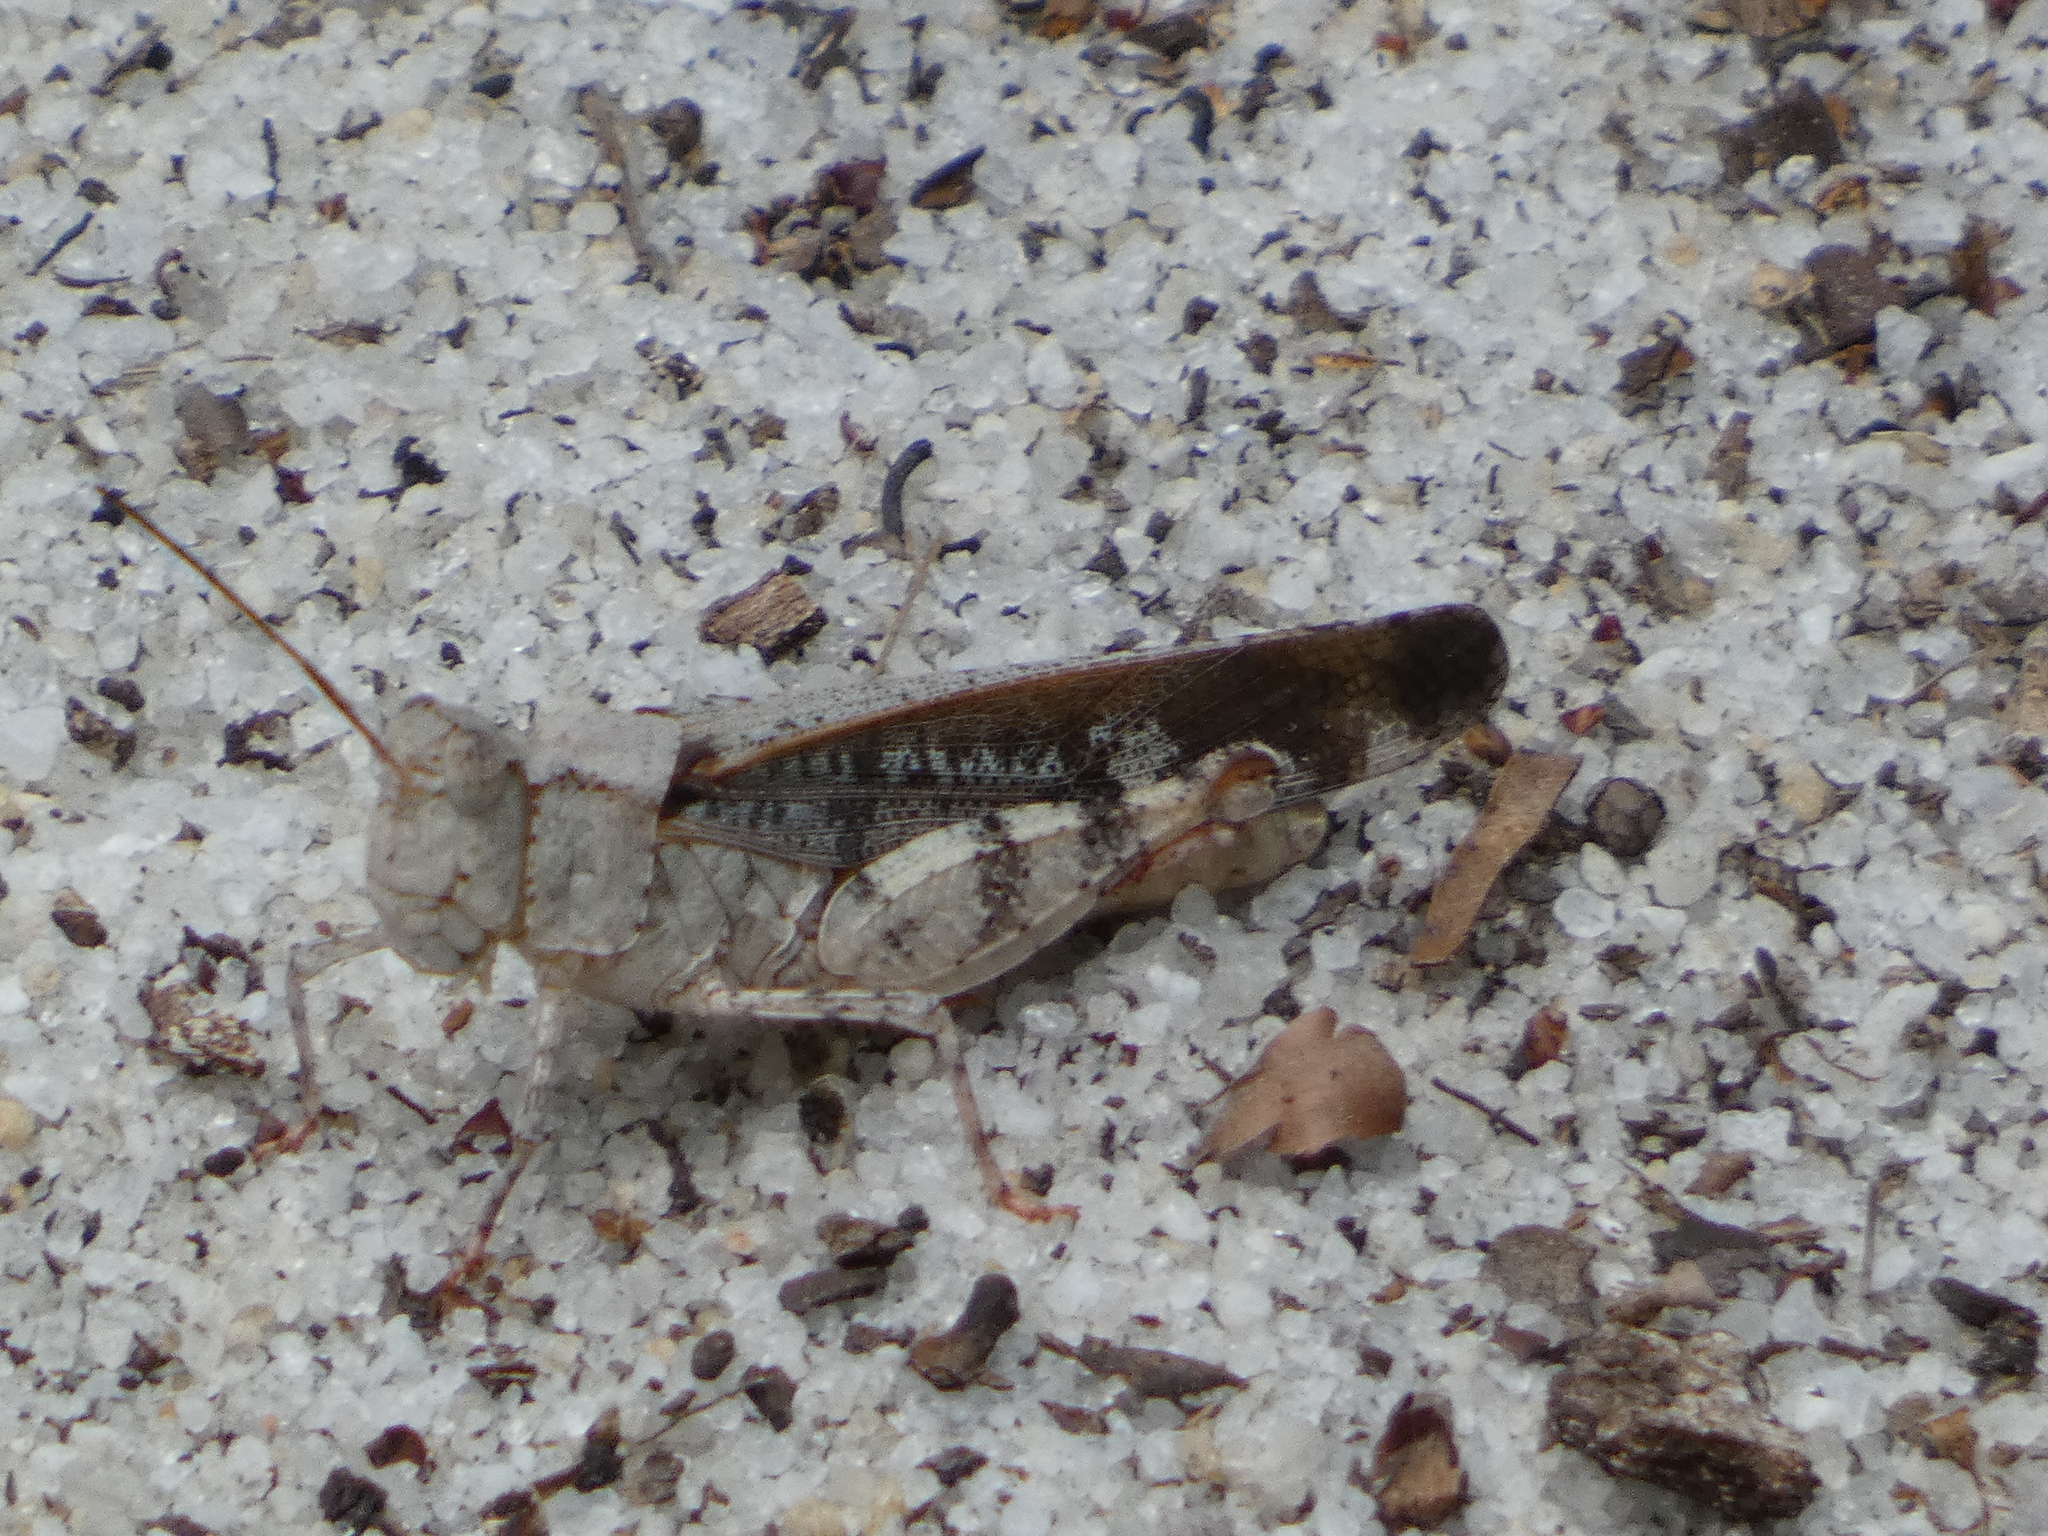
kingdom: Animalia
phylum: Arthropoda
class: Insecta
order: Orthoptera
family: Acrididae
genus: Spharagemon
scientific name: Spharagemon marmoratum
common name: Marbled grasshopper
